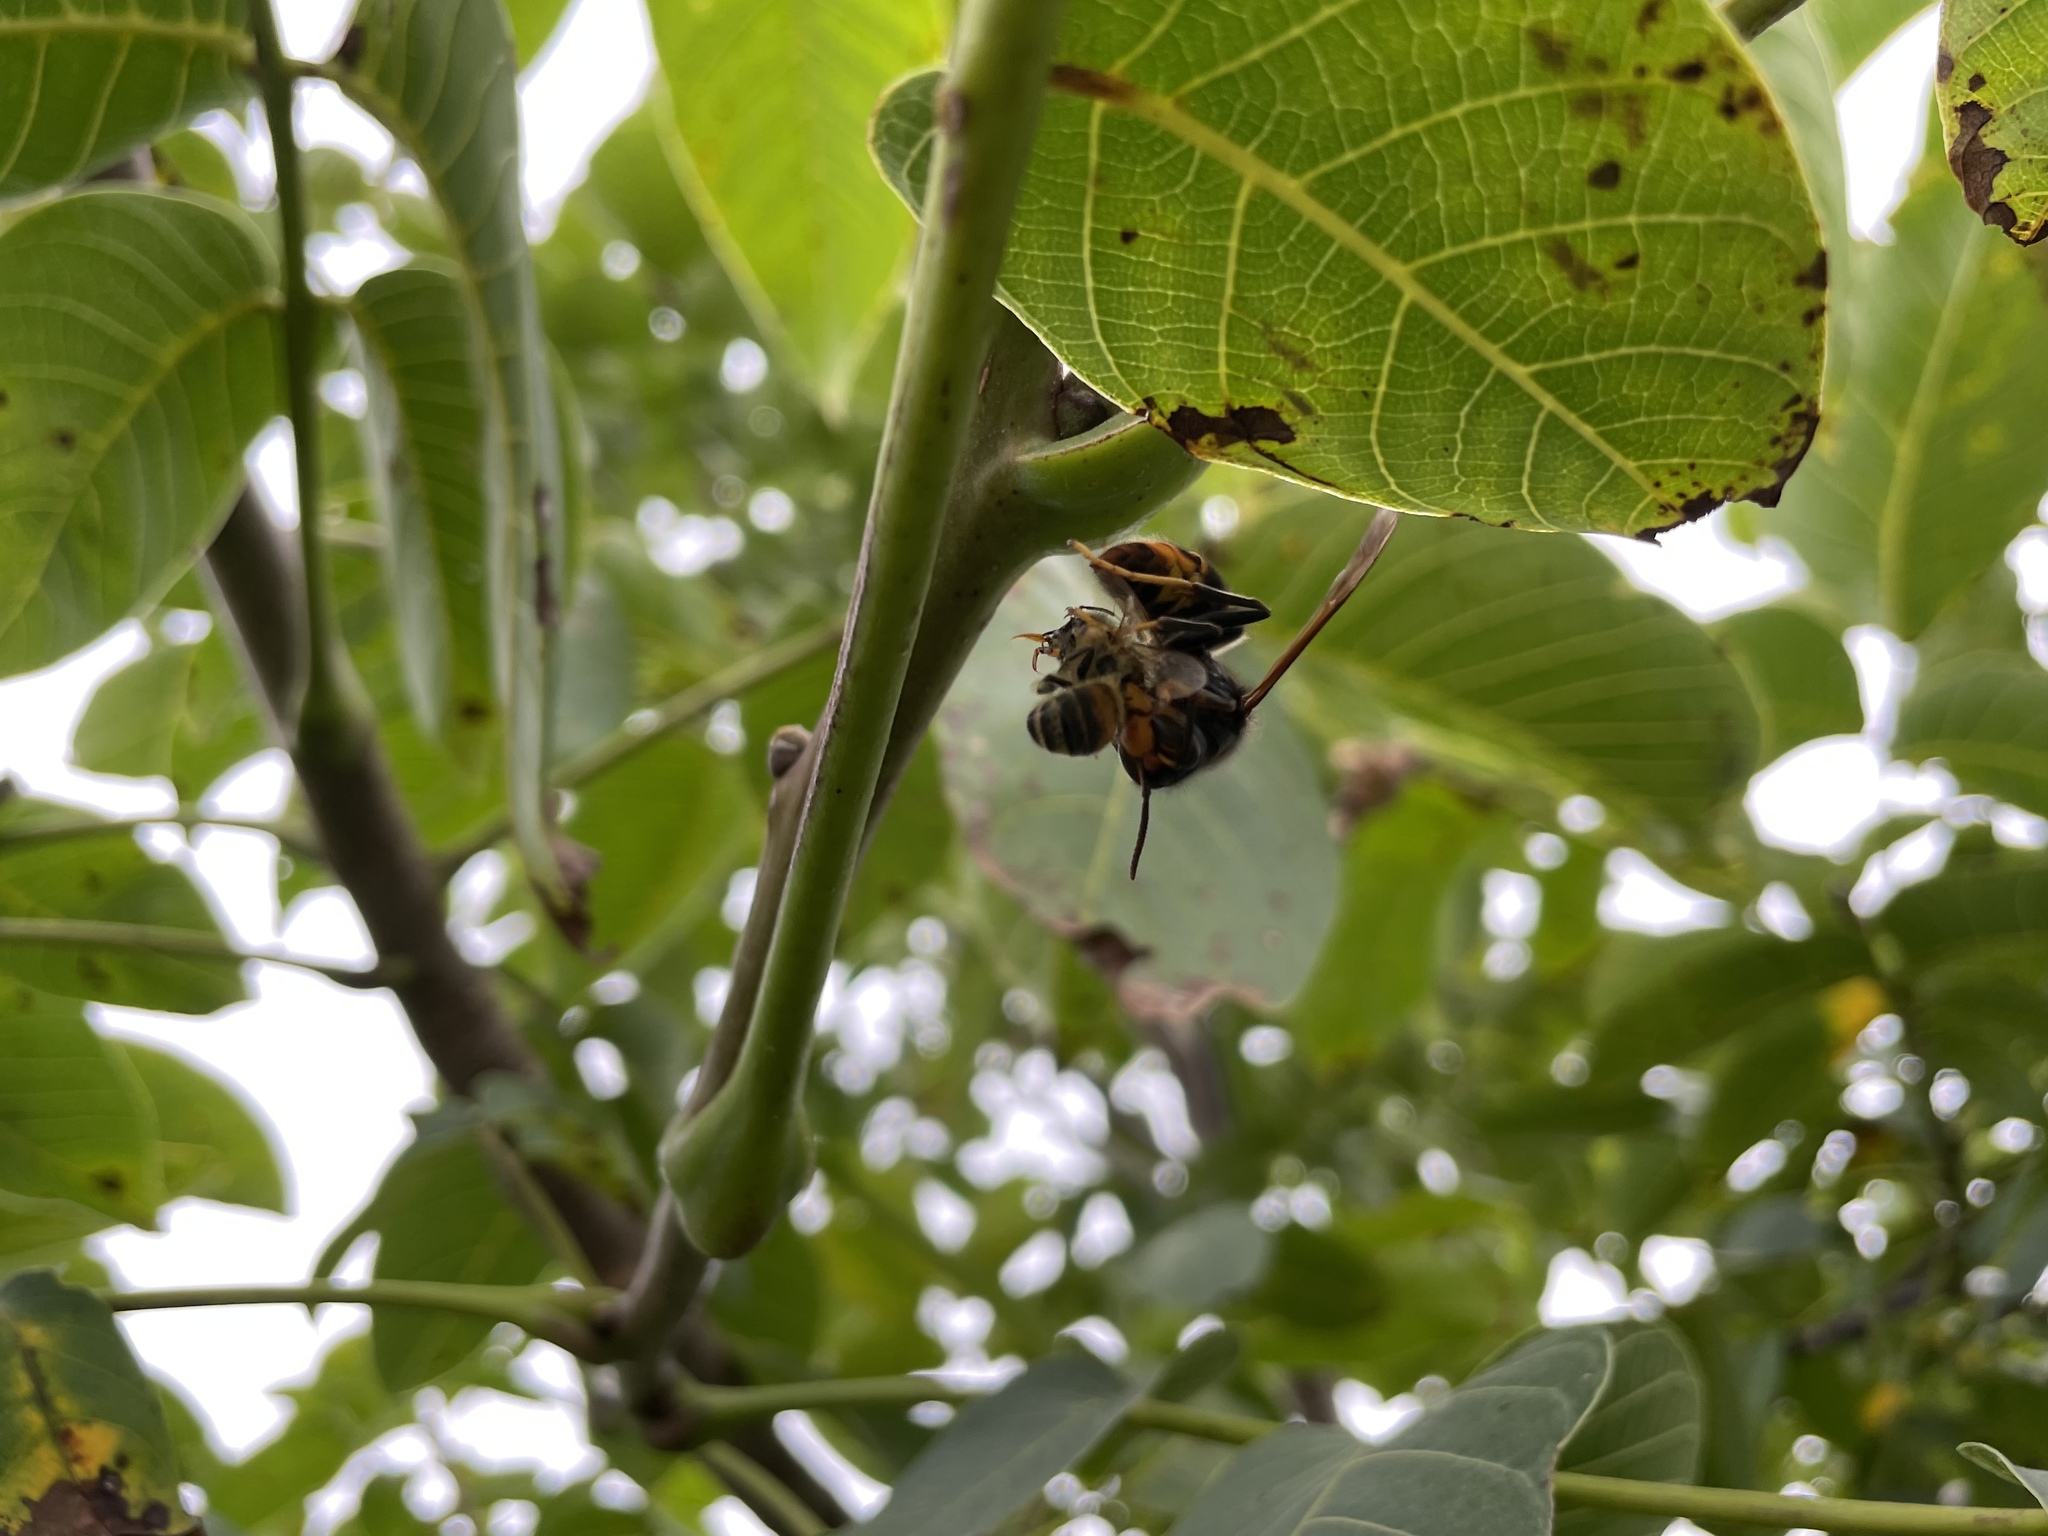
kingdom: Animalia
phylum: Arthropoda
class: Insecta
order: Hymenoptera
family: Vespidae
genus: Vespa
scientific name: Vespa velutina
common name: Asian hornet
